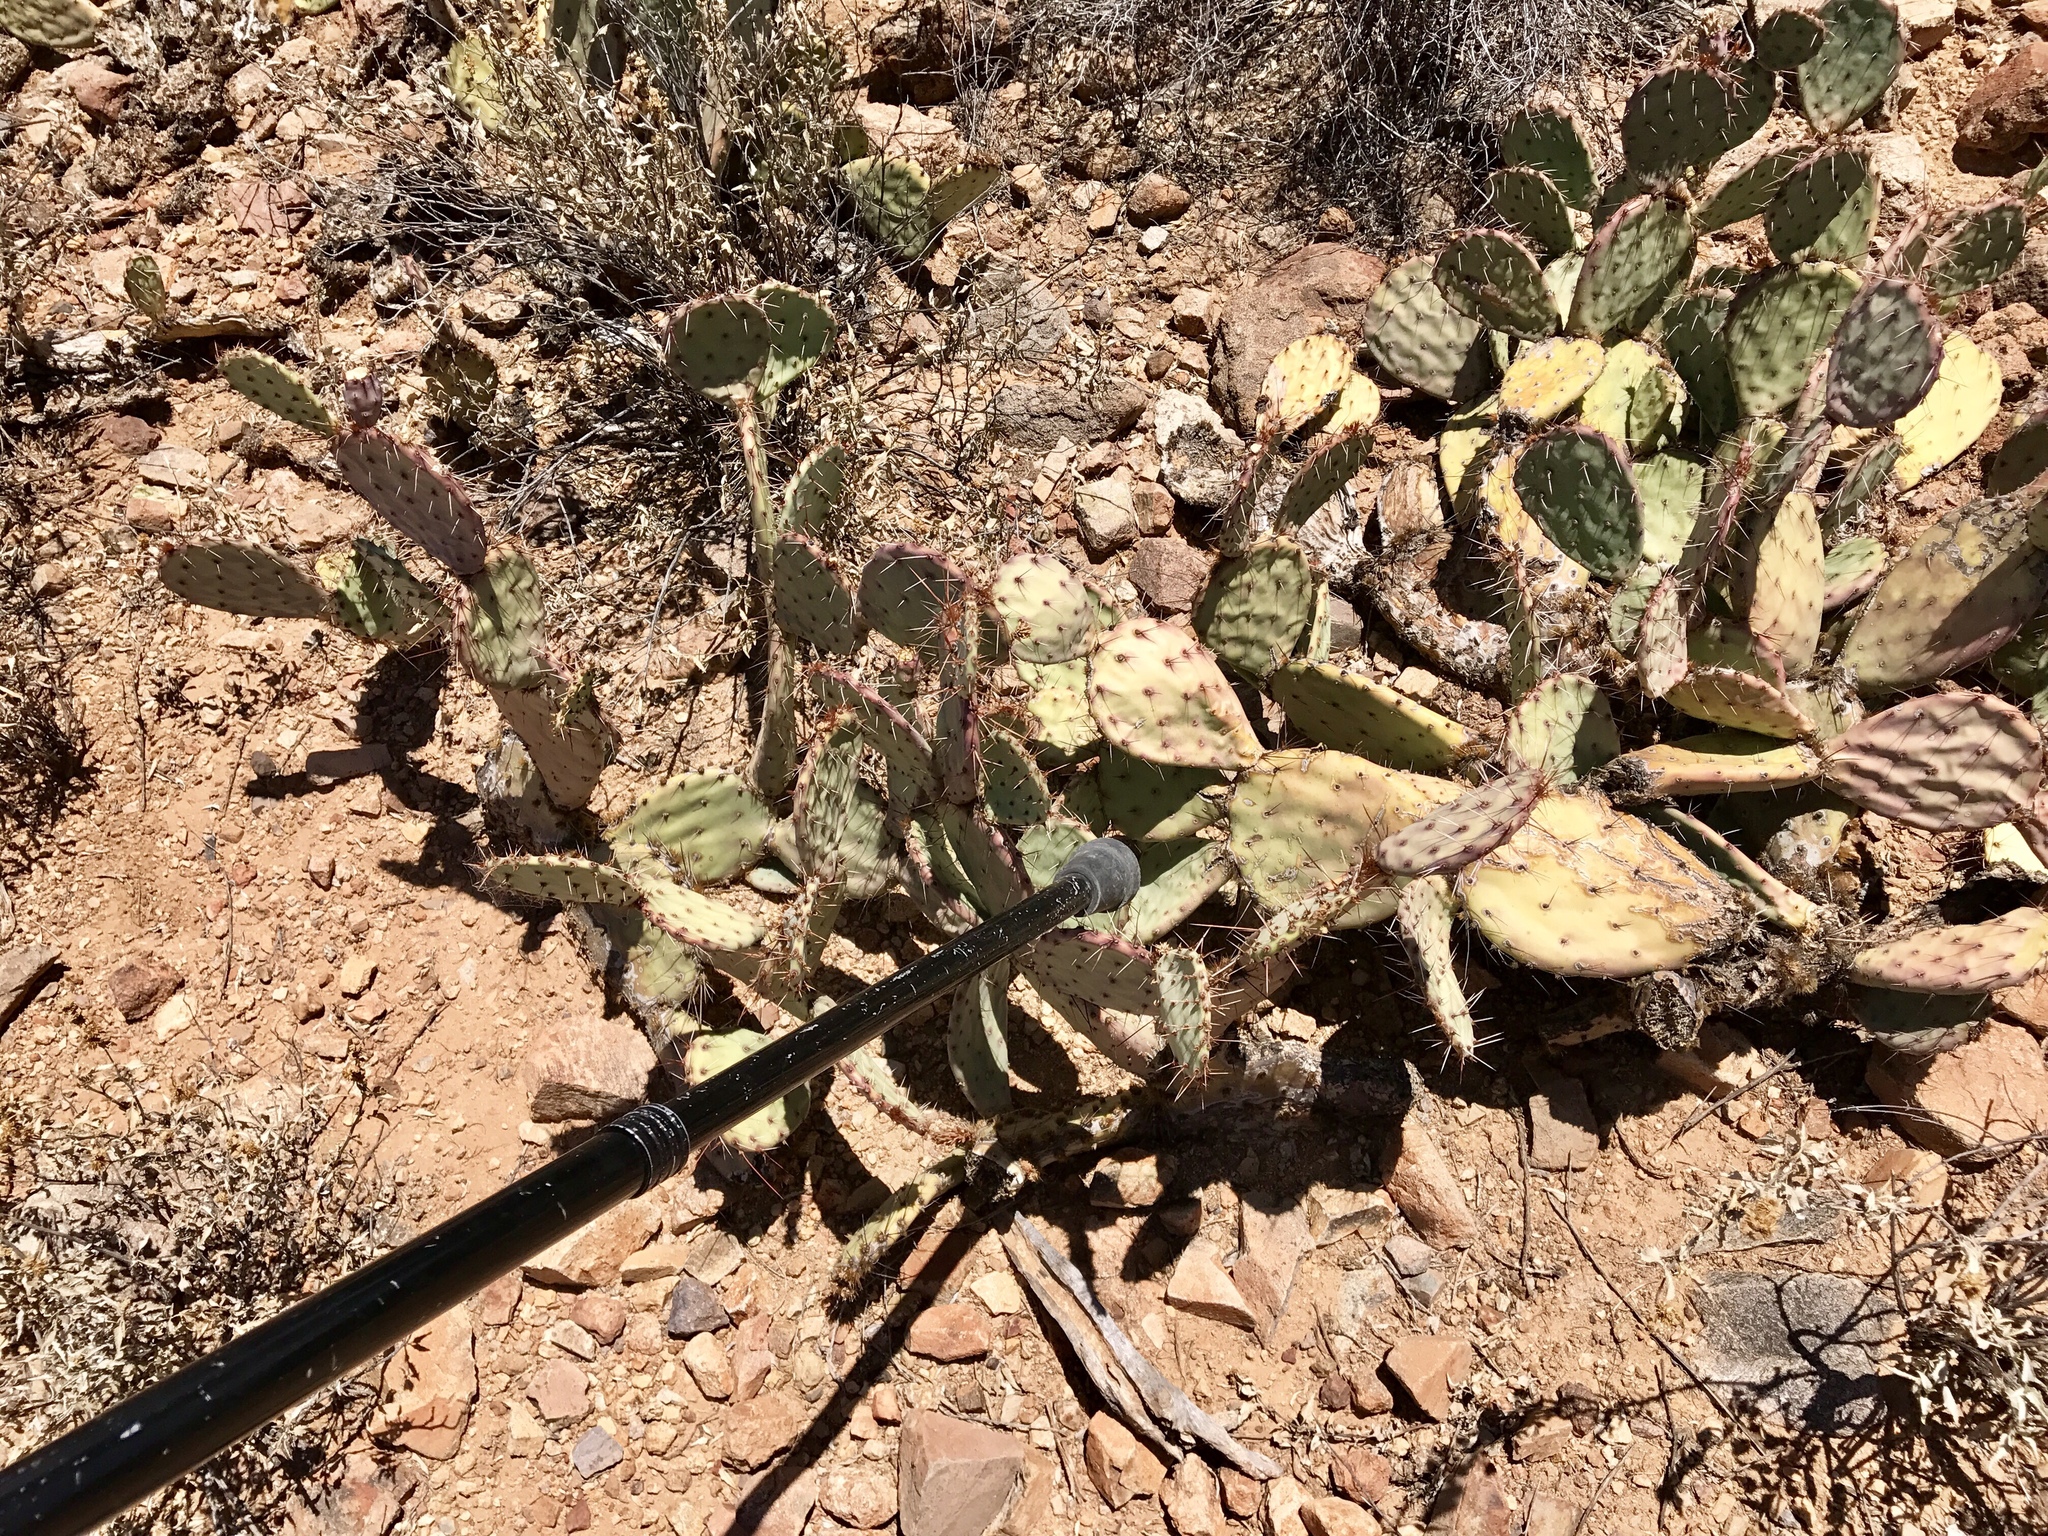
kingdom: Plantae
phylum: Tracheophyta
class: Magnoliopsida
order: Caryophyllales
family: Cactaceae
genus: Opuntia
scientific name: Opuntia phaeacantha
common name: New mexico prickly-pear
